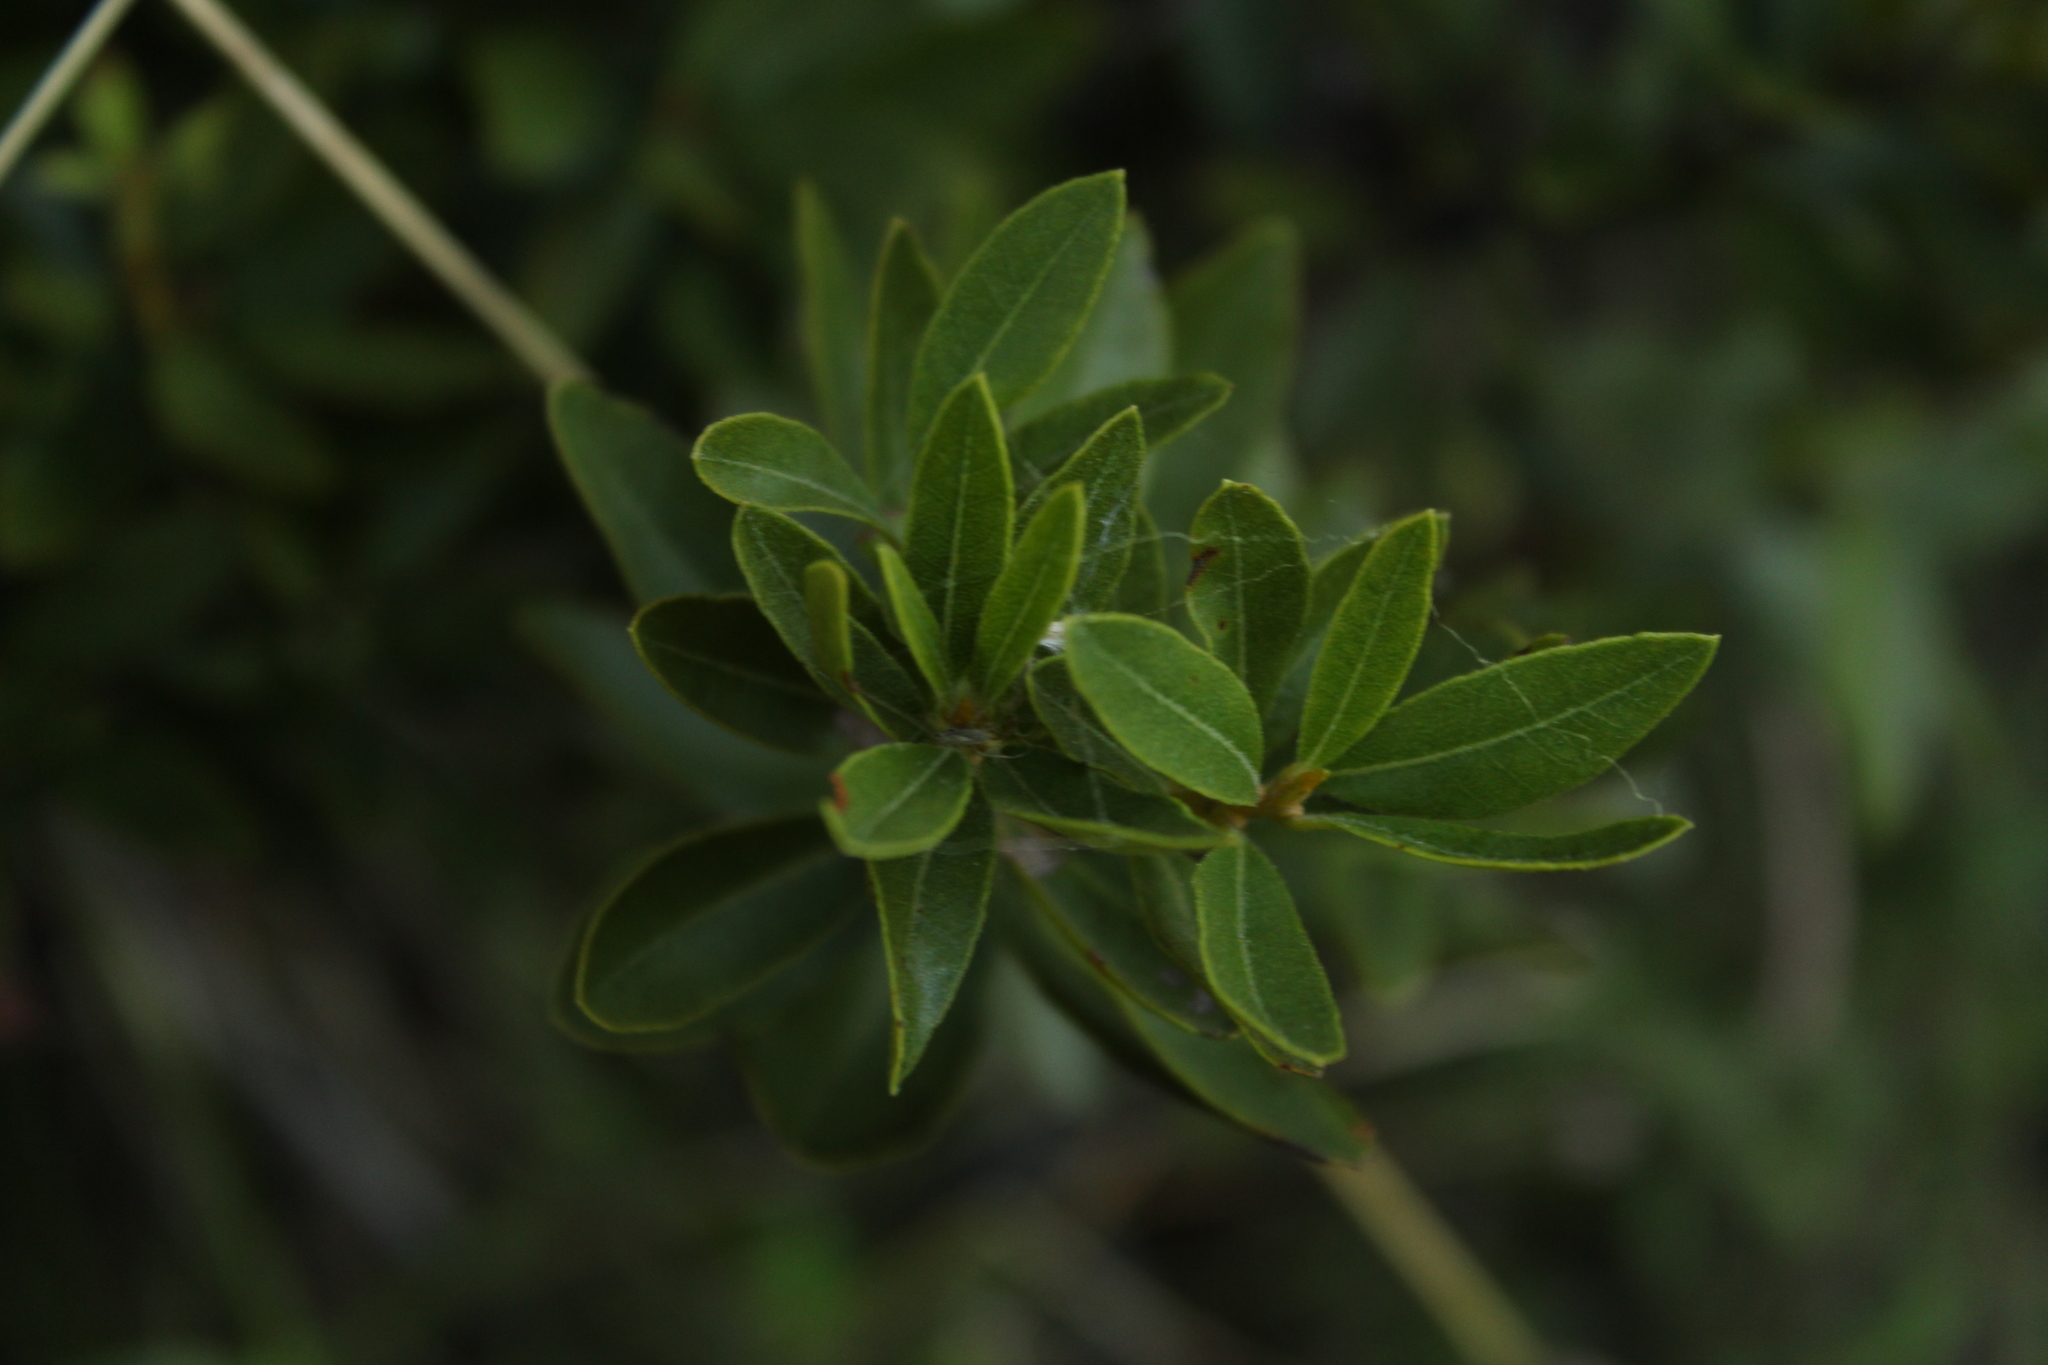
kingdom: Plantae
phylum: Tracheophyta
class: Magnoliopsida
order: Fagales
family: Myricaceae
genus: Morella
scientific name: Morella parvifolia
